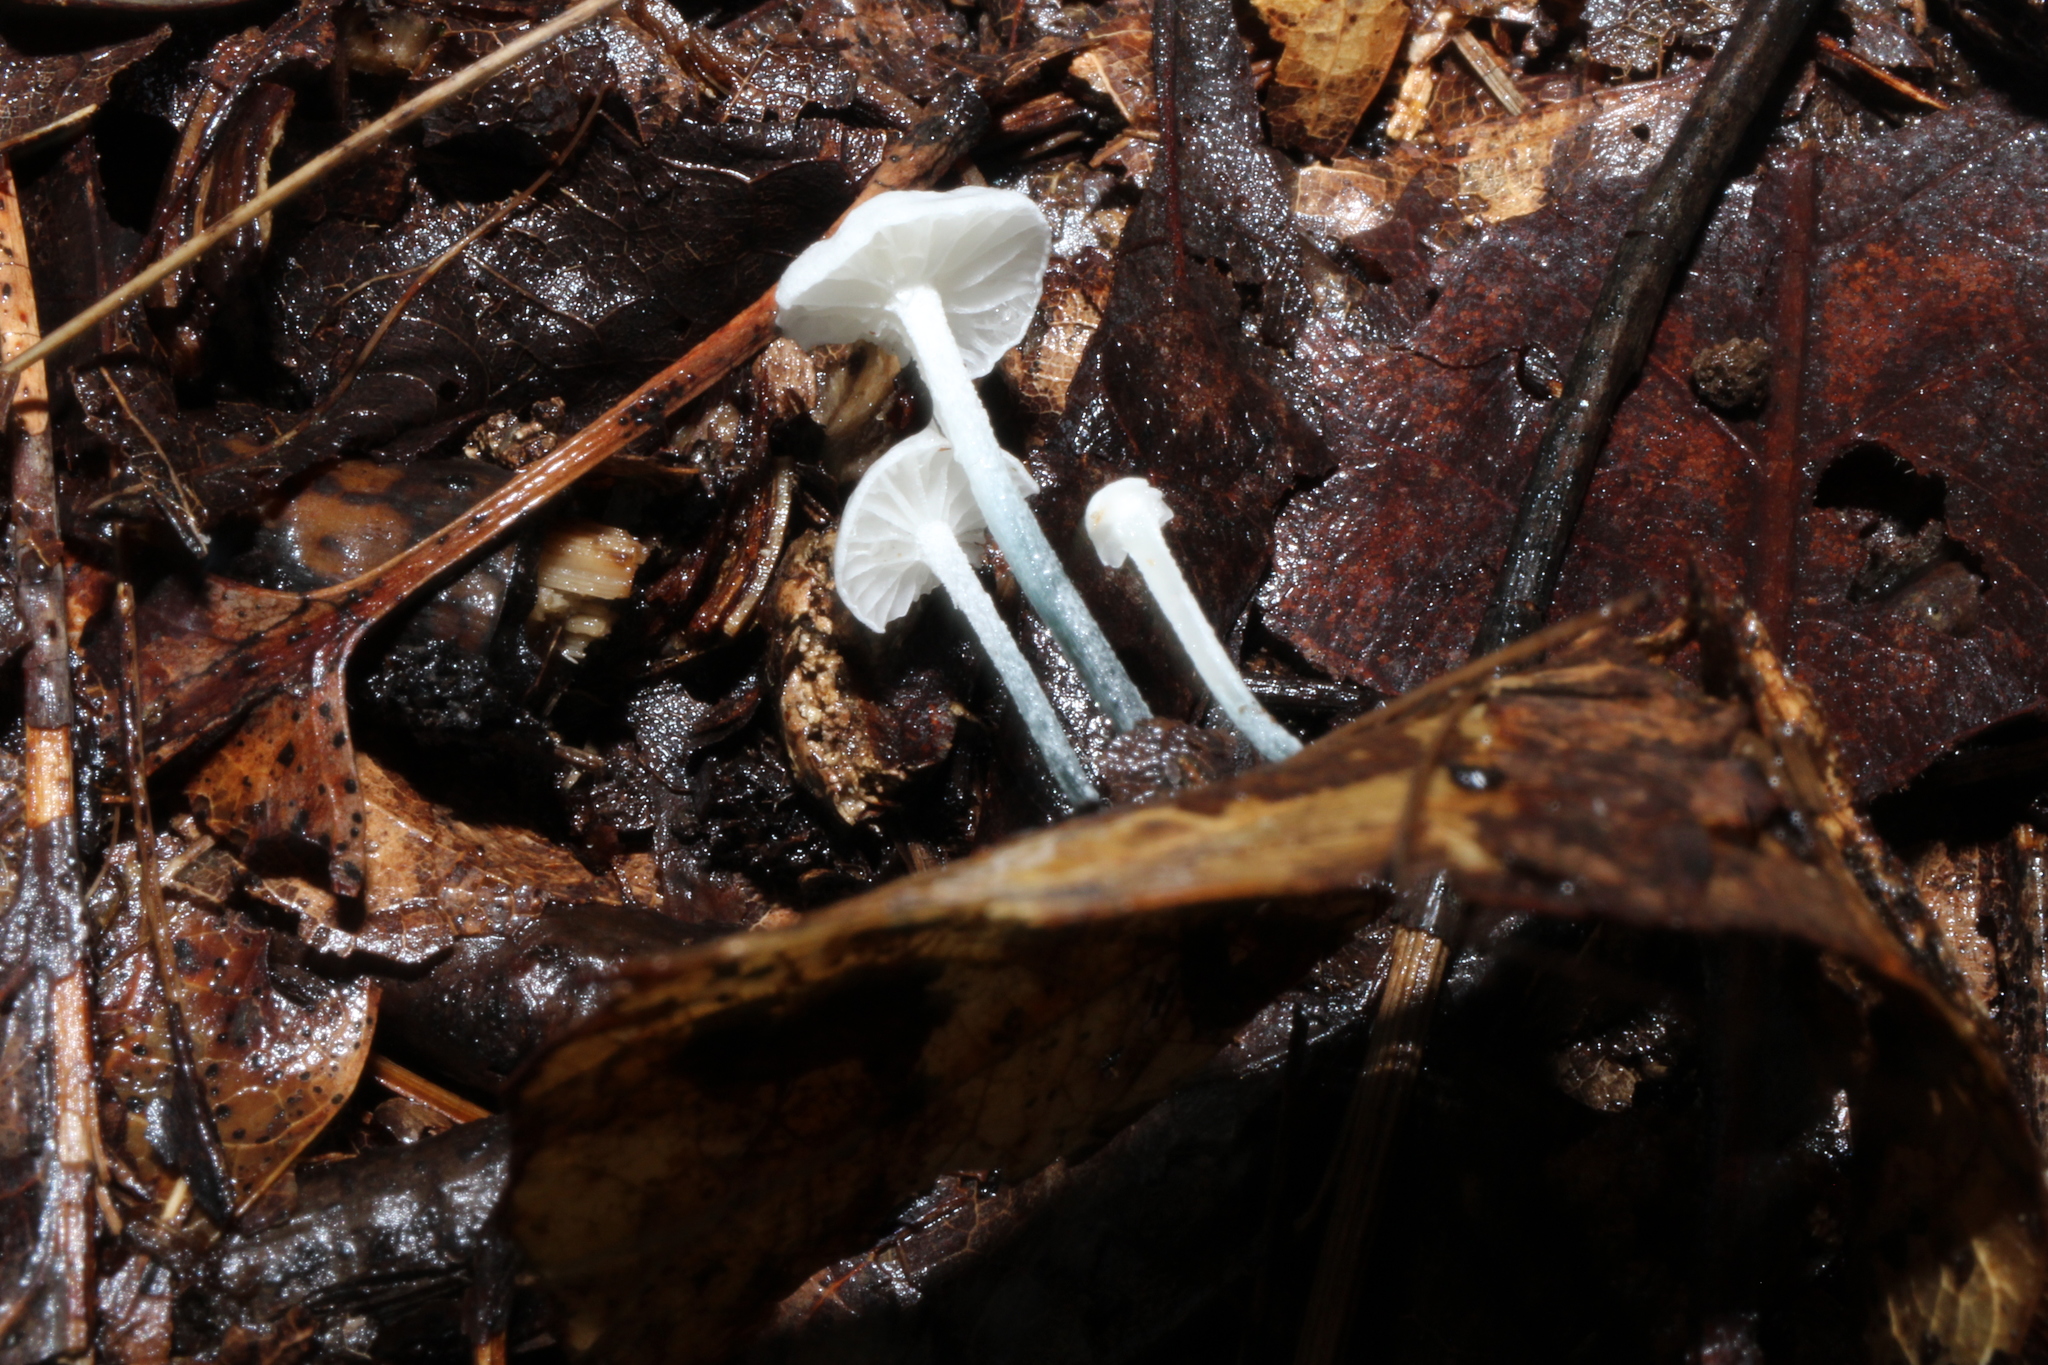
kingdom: Fungi
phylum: Basidiomycota
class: Agaricomycetes
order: Agaricales
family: Marasmiaceae
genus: Tetrapyrgos
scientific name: Tetrapyrgos nigripes
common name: Black-stalked marasmius
